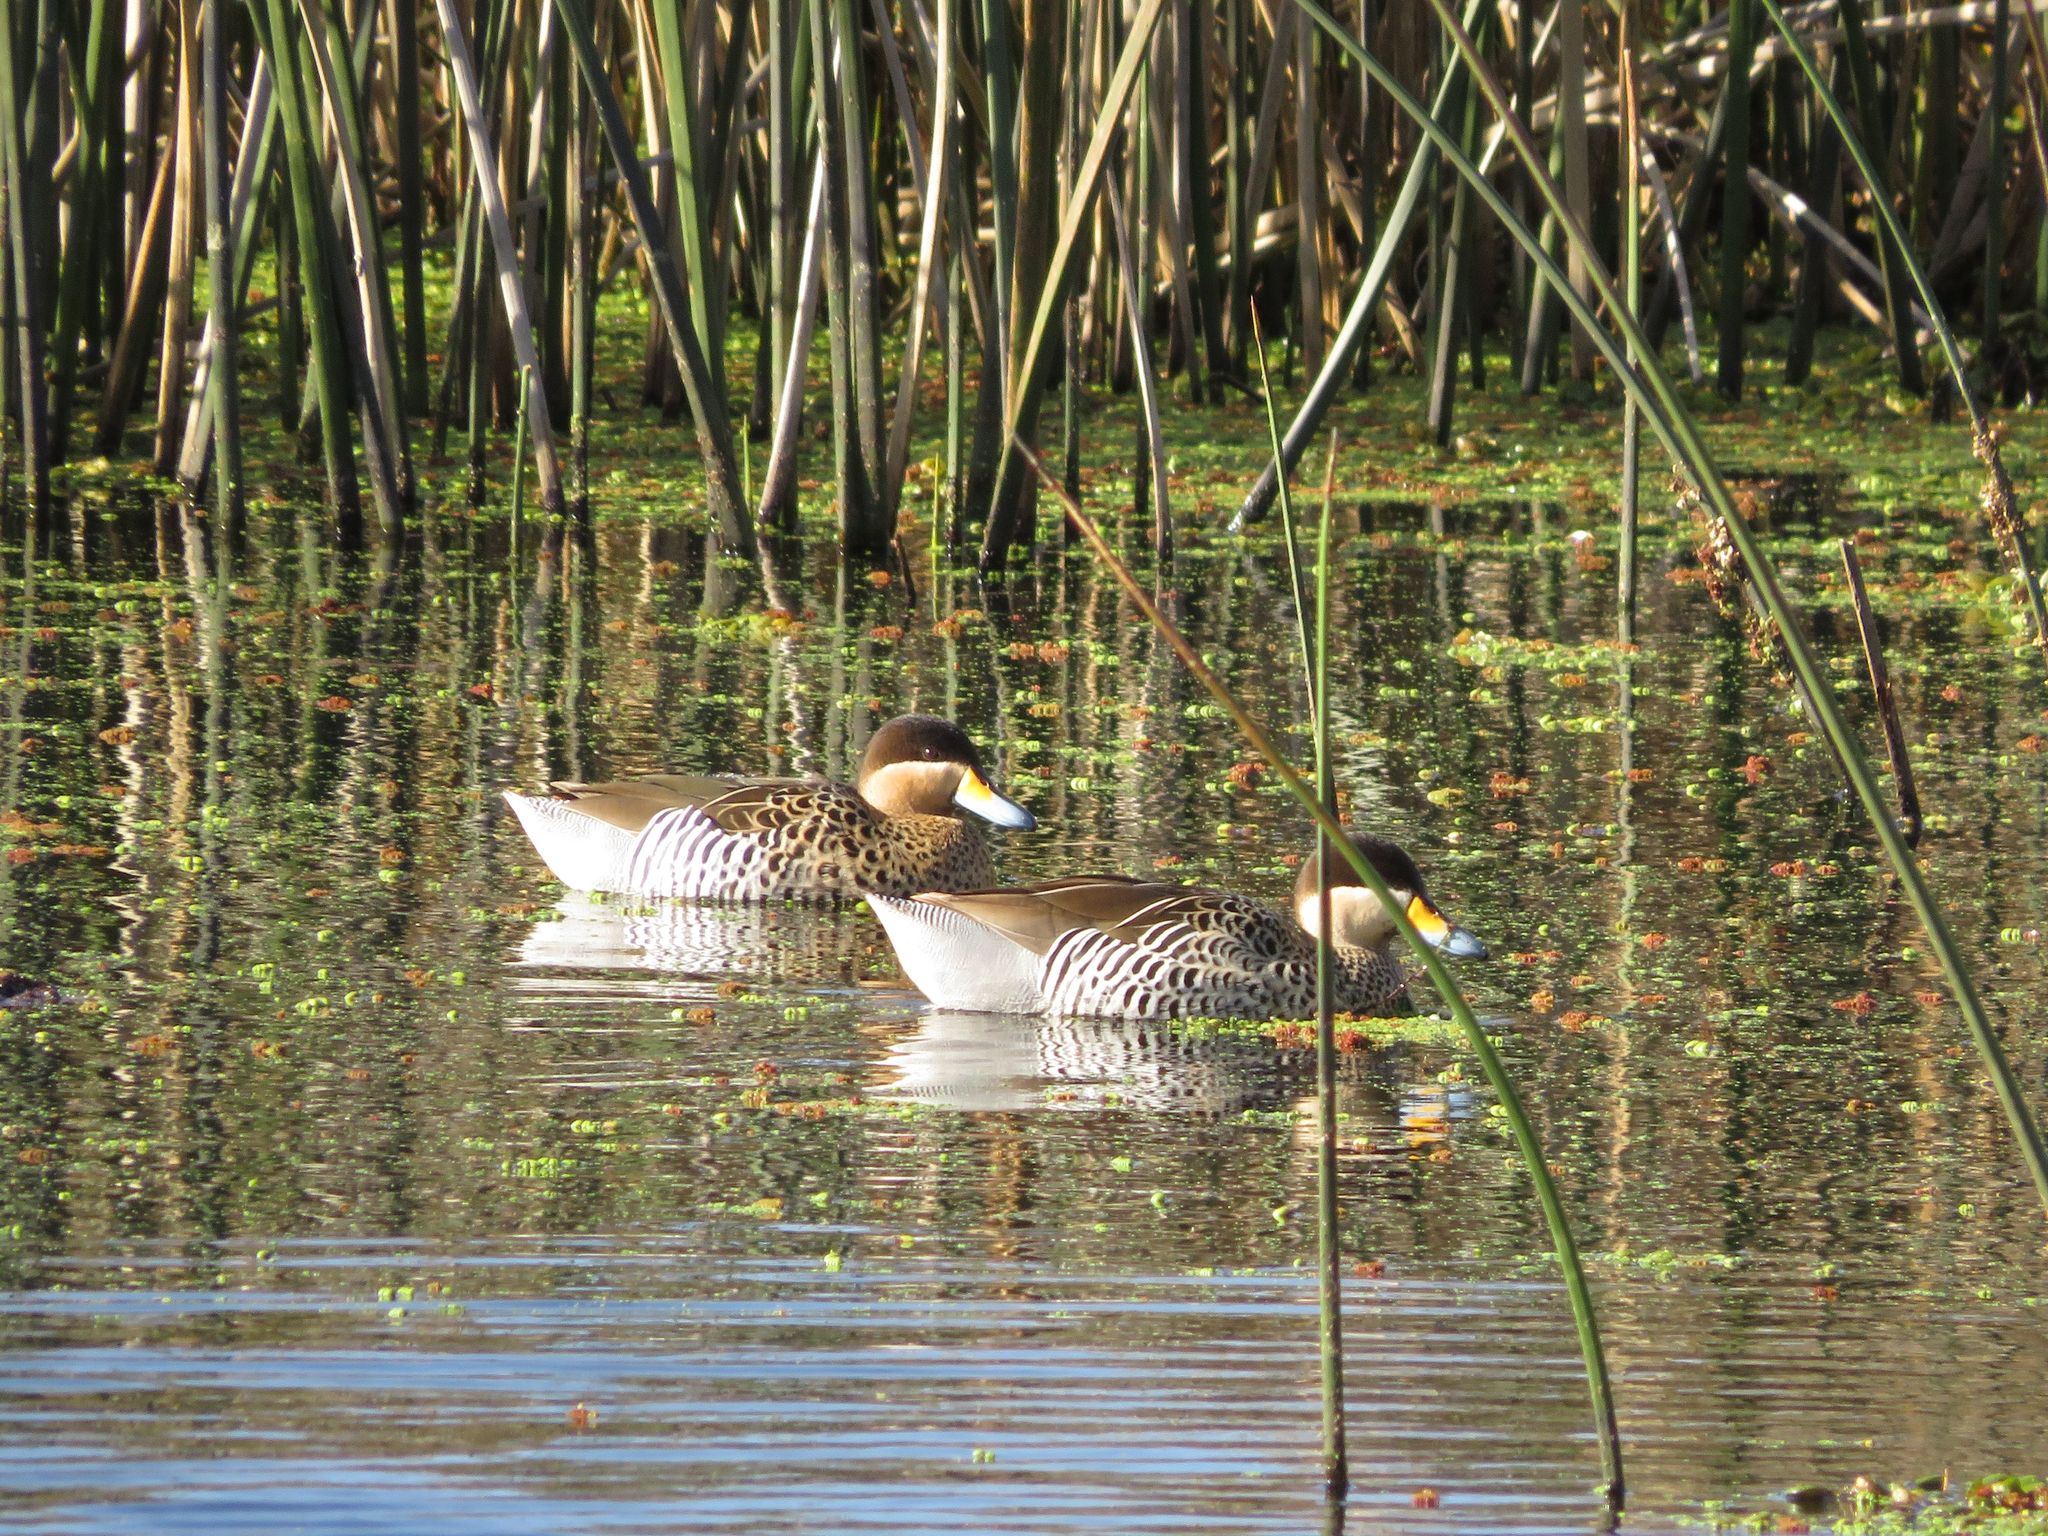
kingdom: Animalia
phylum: Chordata
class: Aves
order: Anseriformes
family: Anatidae
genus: Spatula
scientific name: Spatula versicolor
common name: Silver teal
